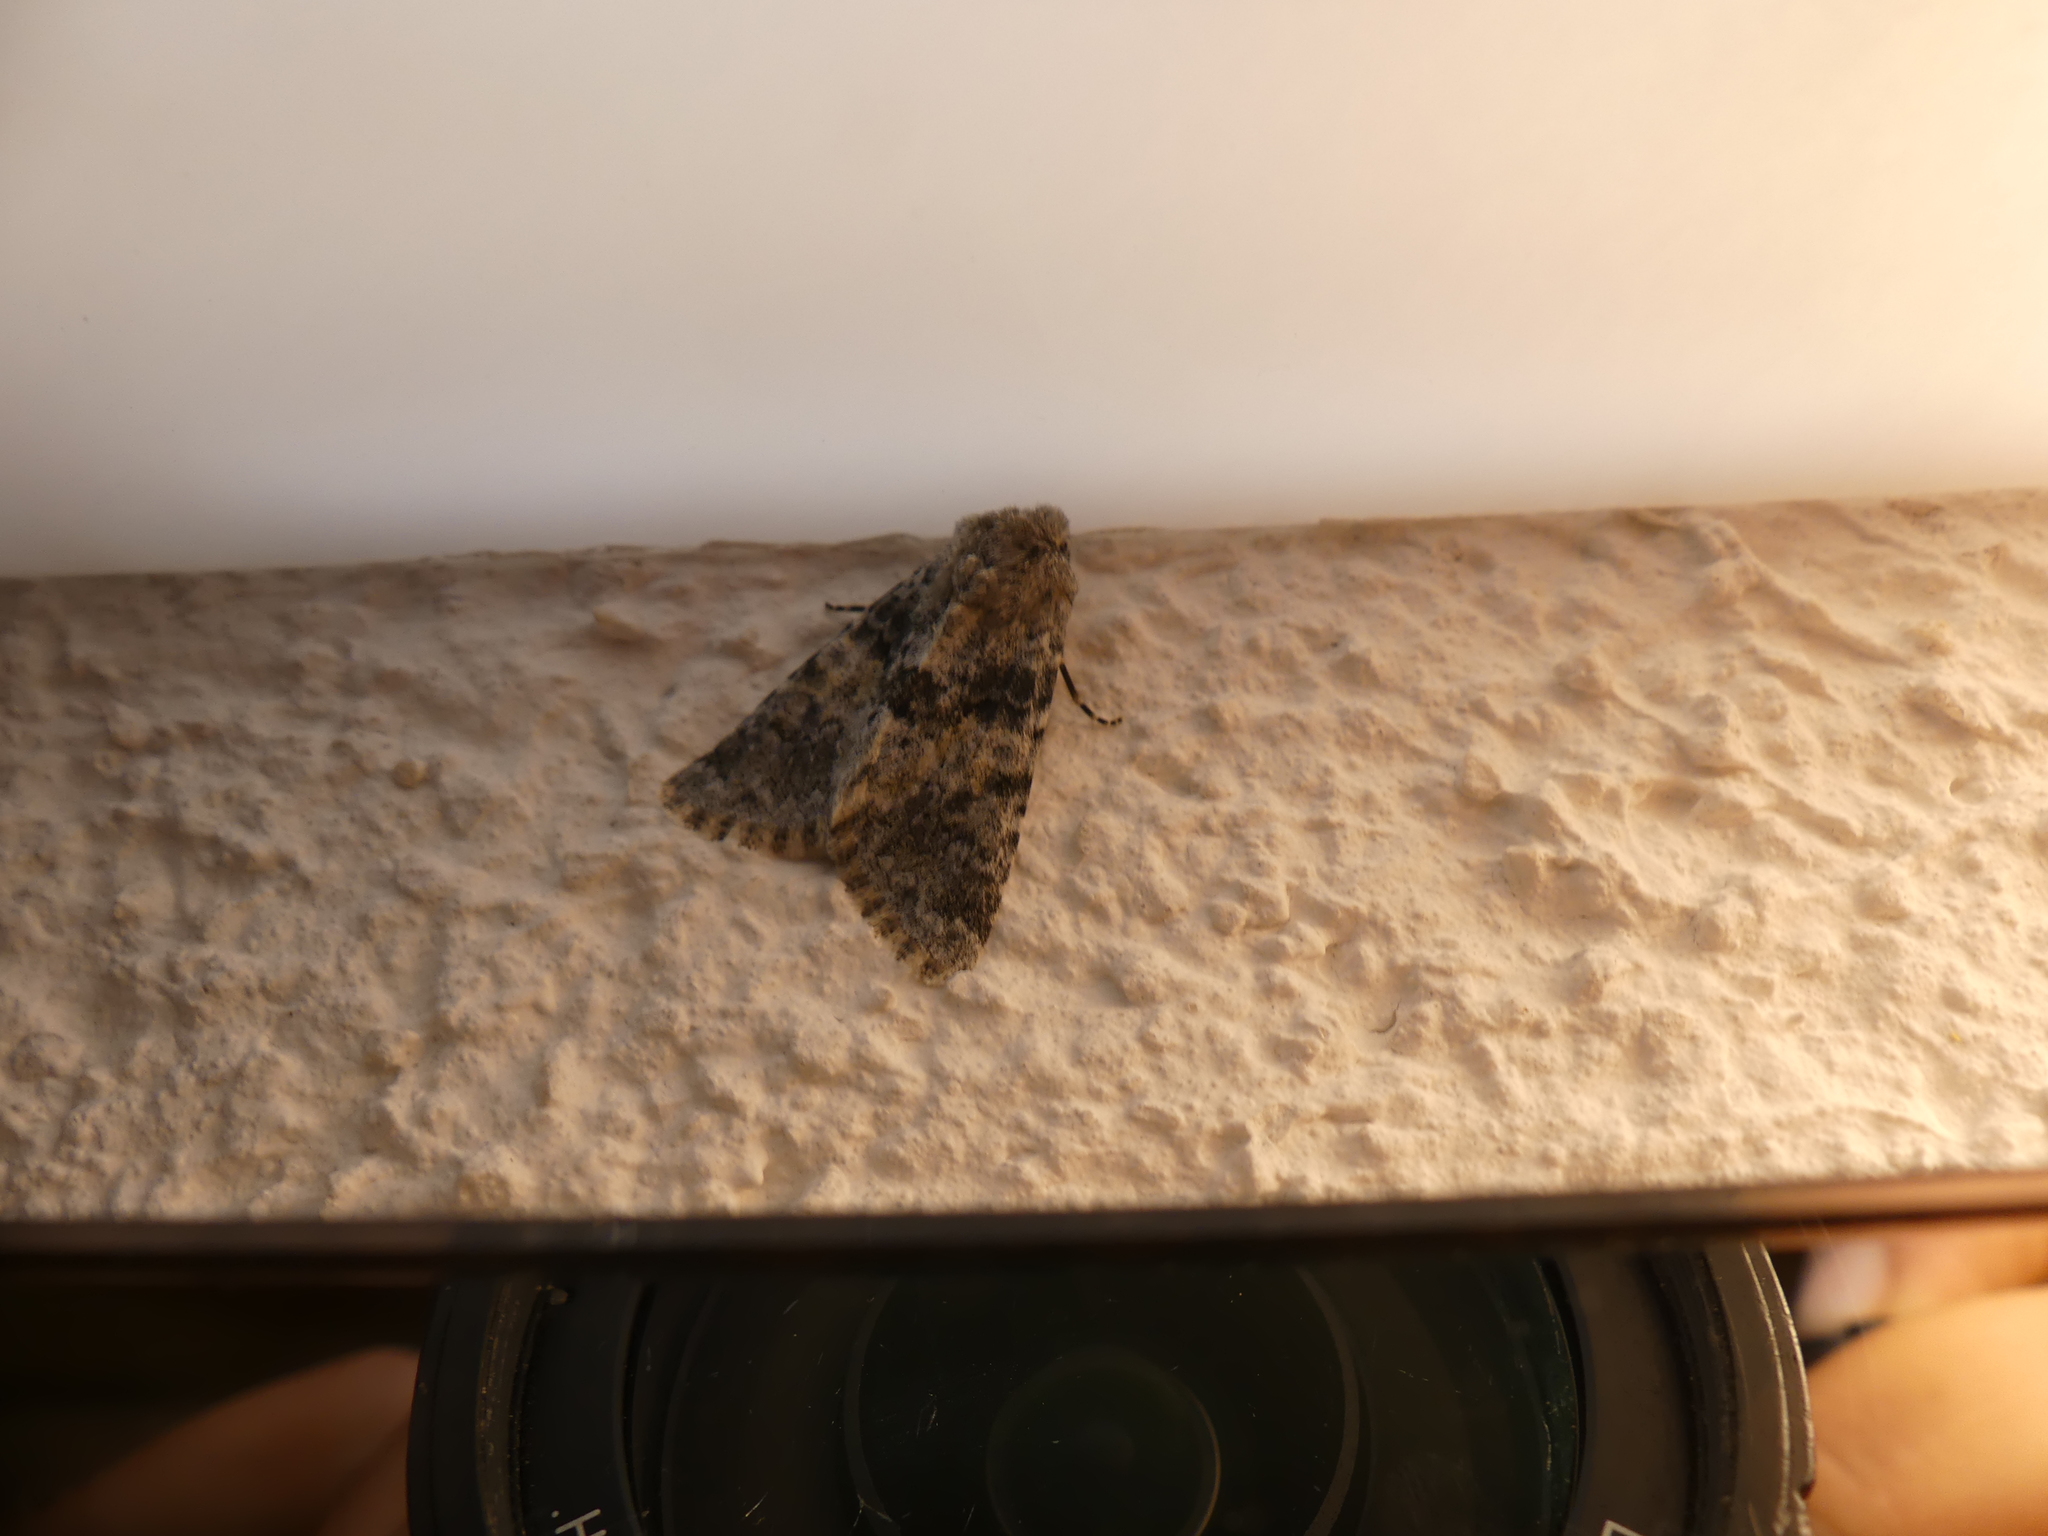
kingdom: Animalia
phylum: Arthropoda
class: Insecta
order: Lepidoptera
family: Noctuidae
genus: Hadena
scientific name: Hadena caesia
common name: Grey
